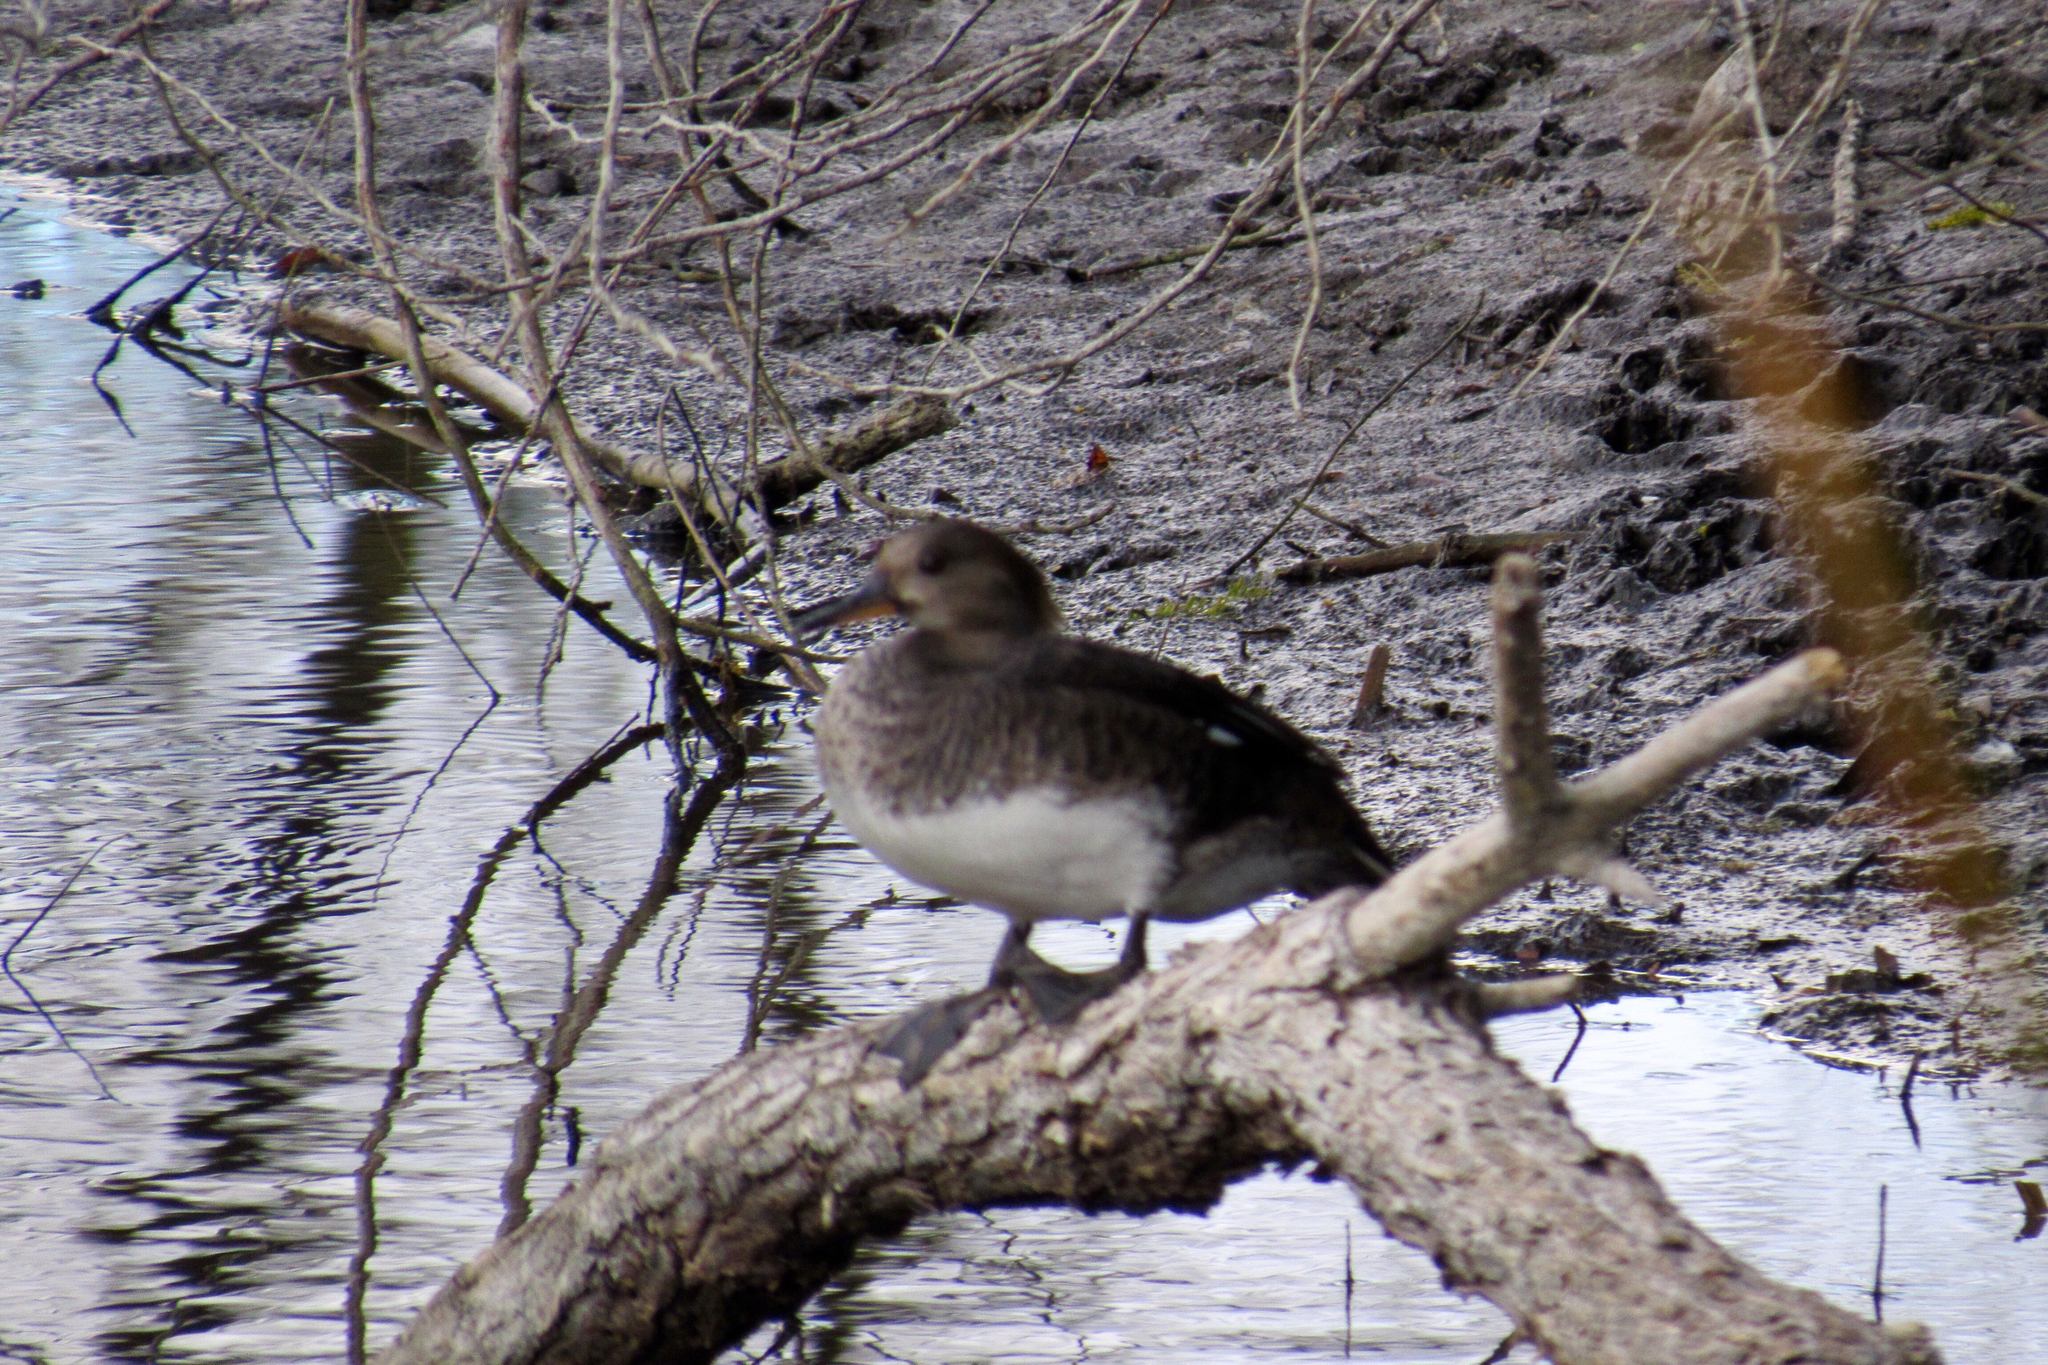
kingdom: Animalia
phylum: Chordata
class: Aves
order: Anseriformes
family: Anatidae
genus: Lophodytes
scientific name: Lophodytes cucullatus
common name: Hooded merganser
